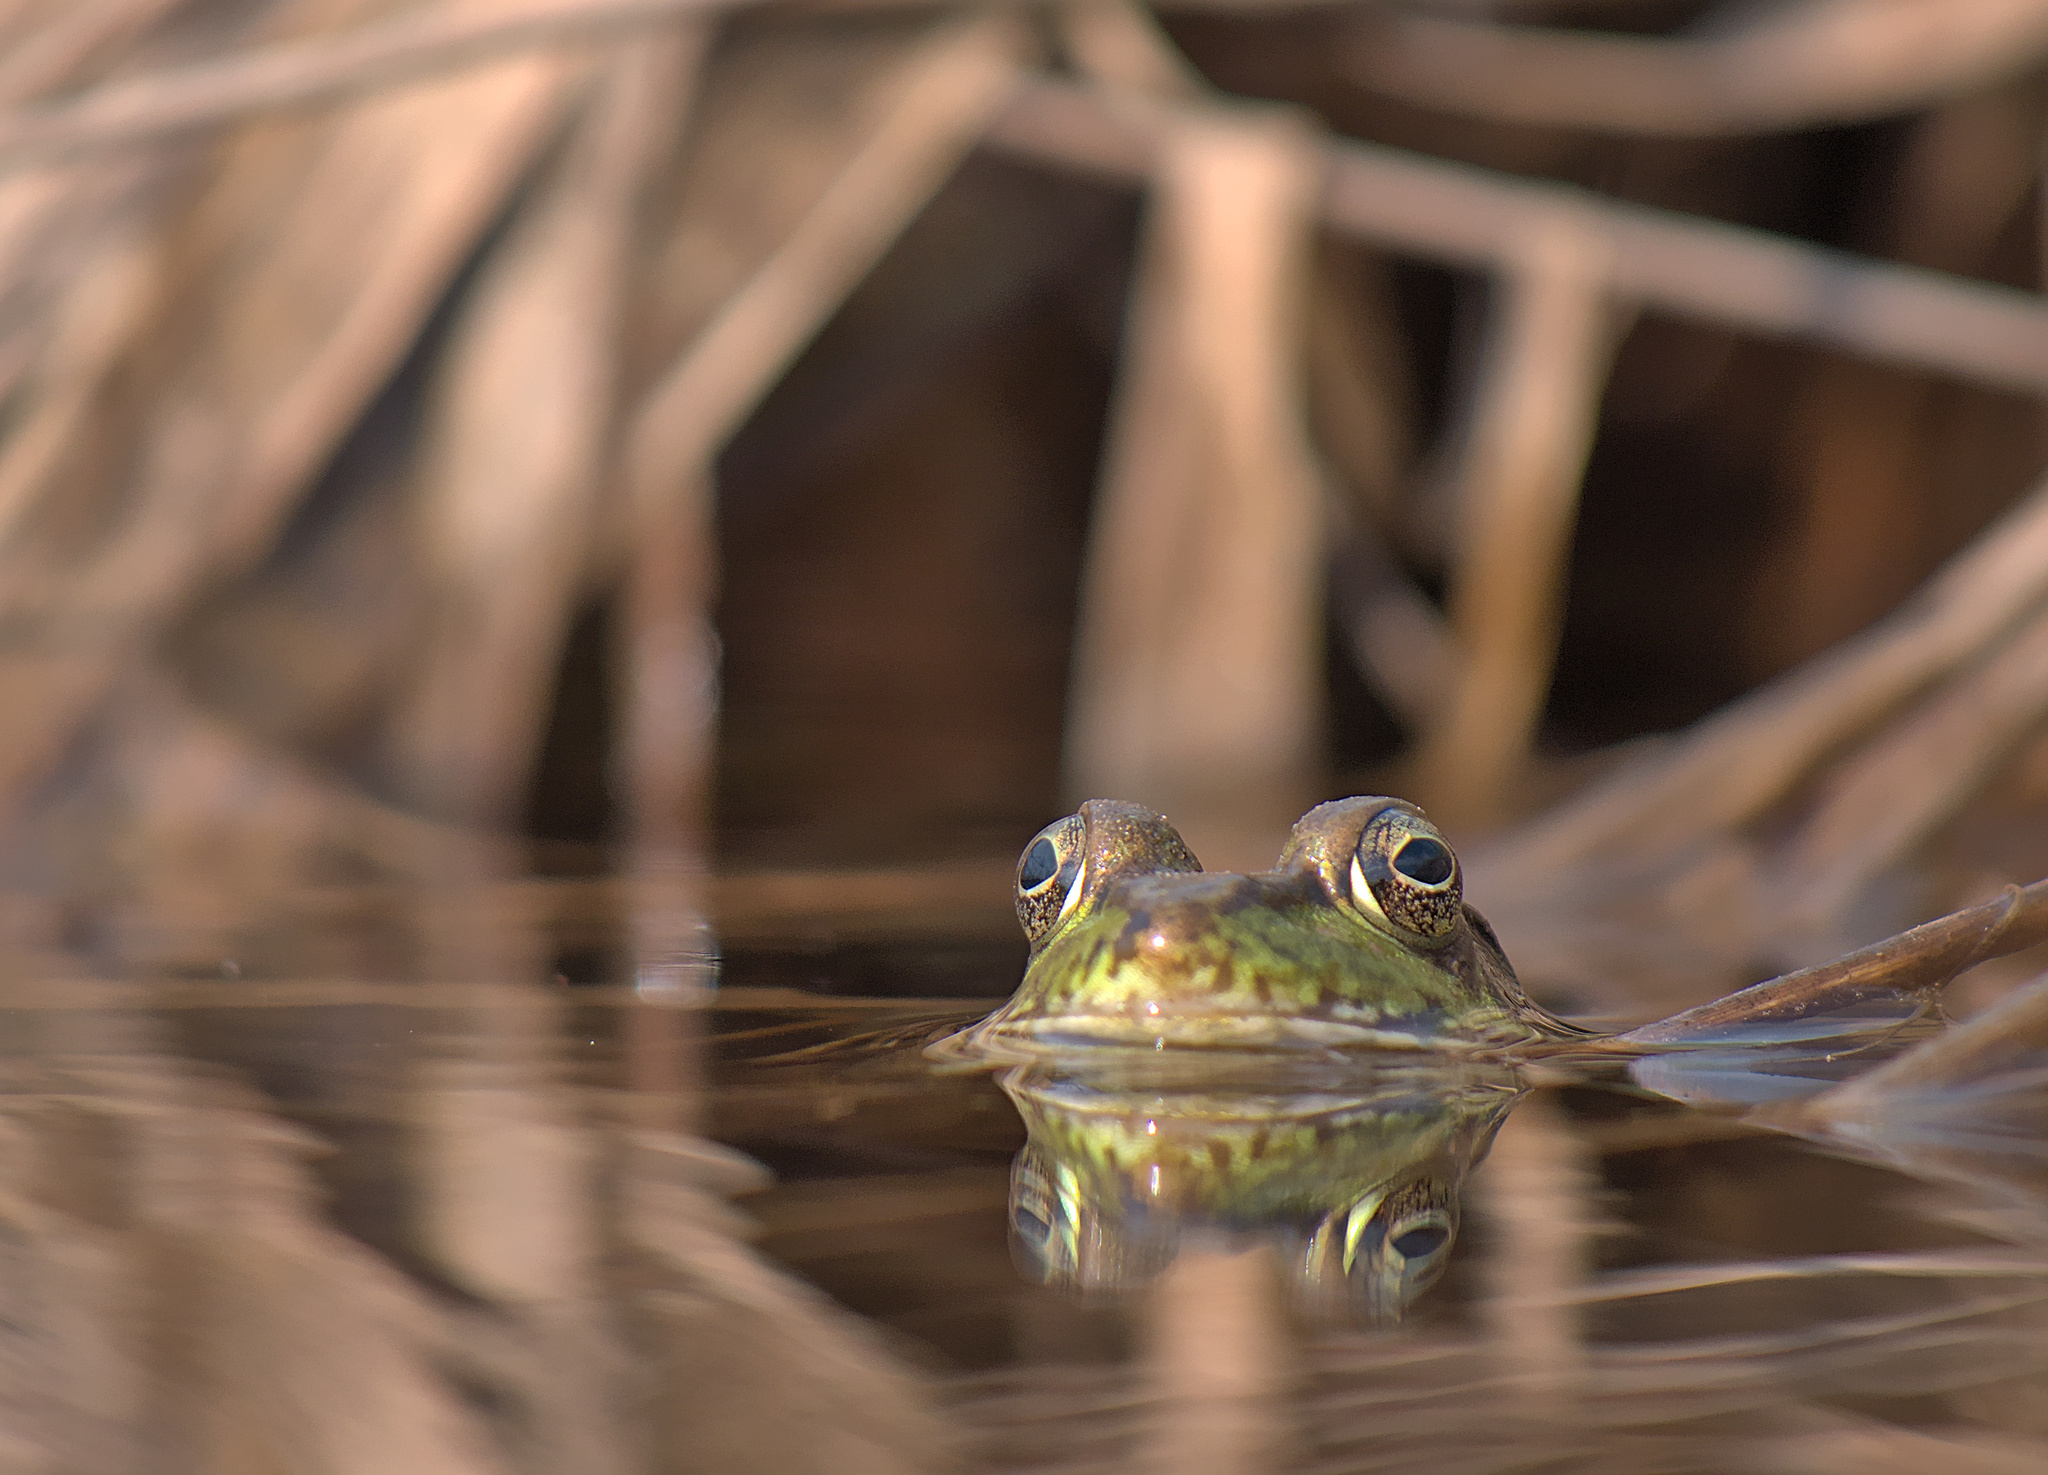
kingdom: Animalia
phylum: Chordata
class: Amphibia
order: Anura
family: Ranidae
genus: Lithobates
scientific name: Lithobates clamitans
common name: Green frog
